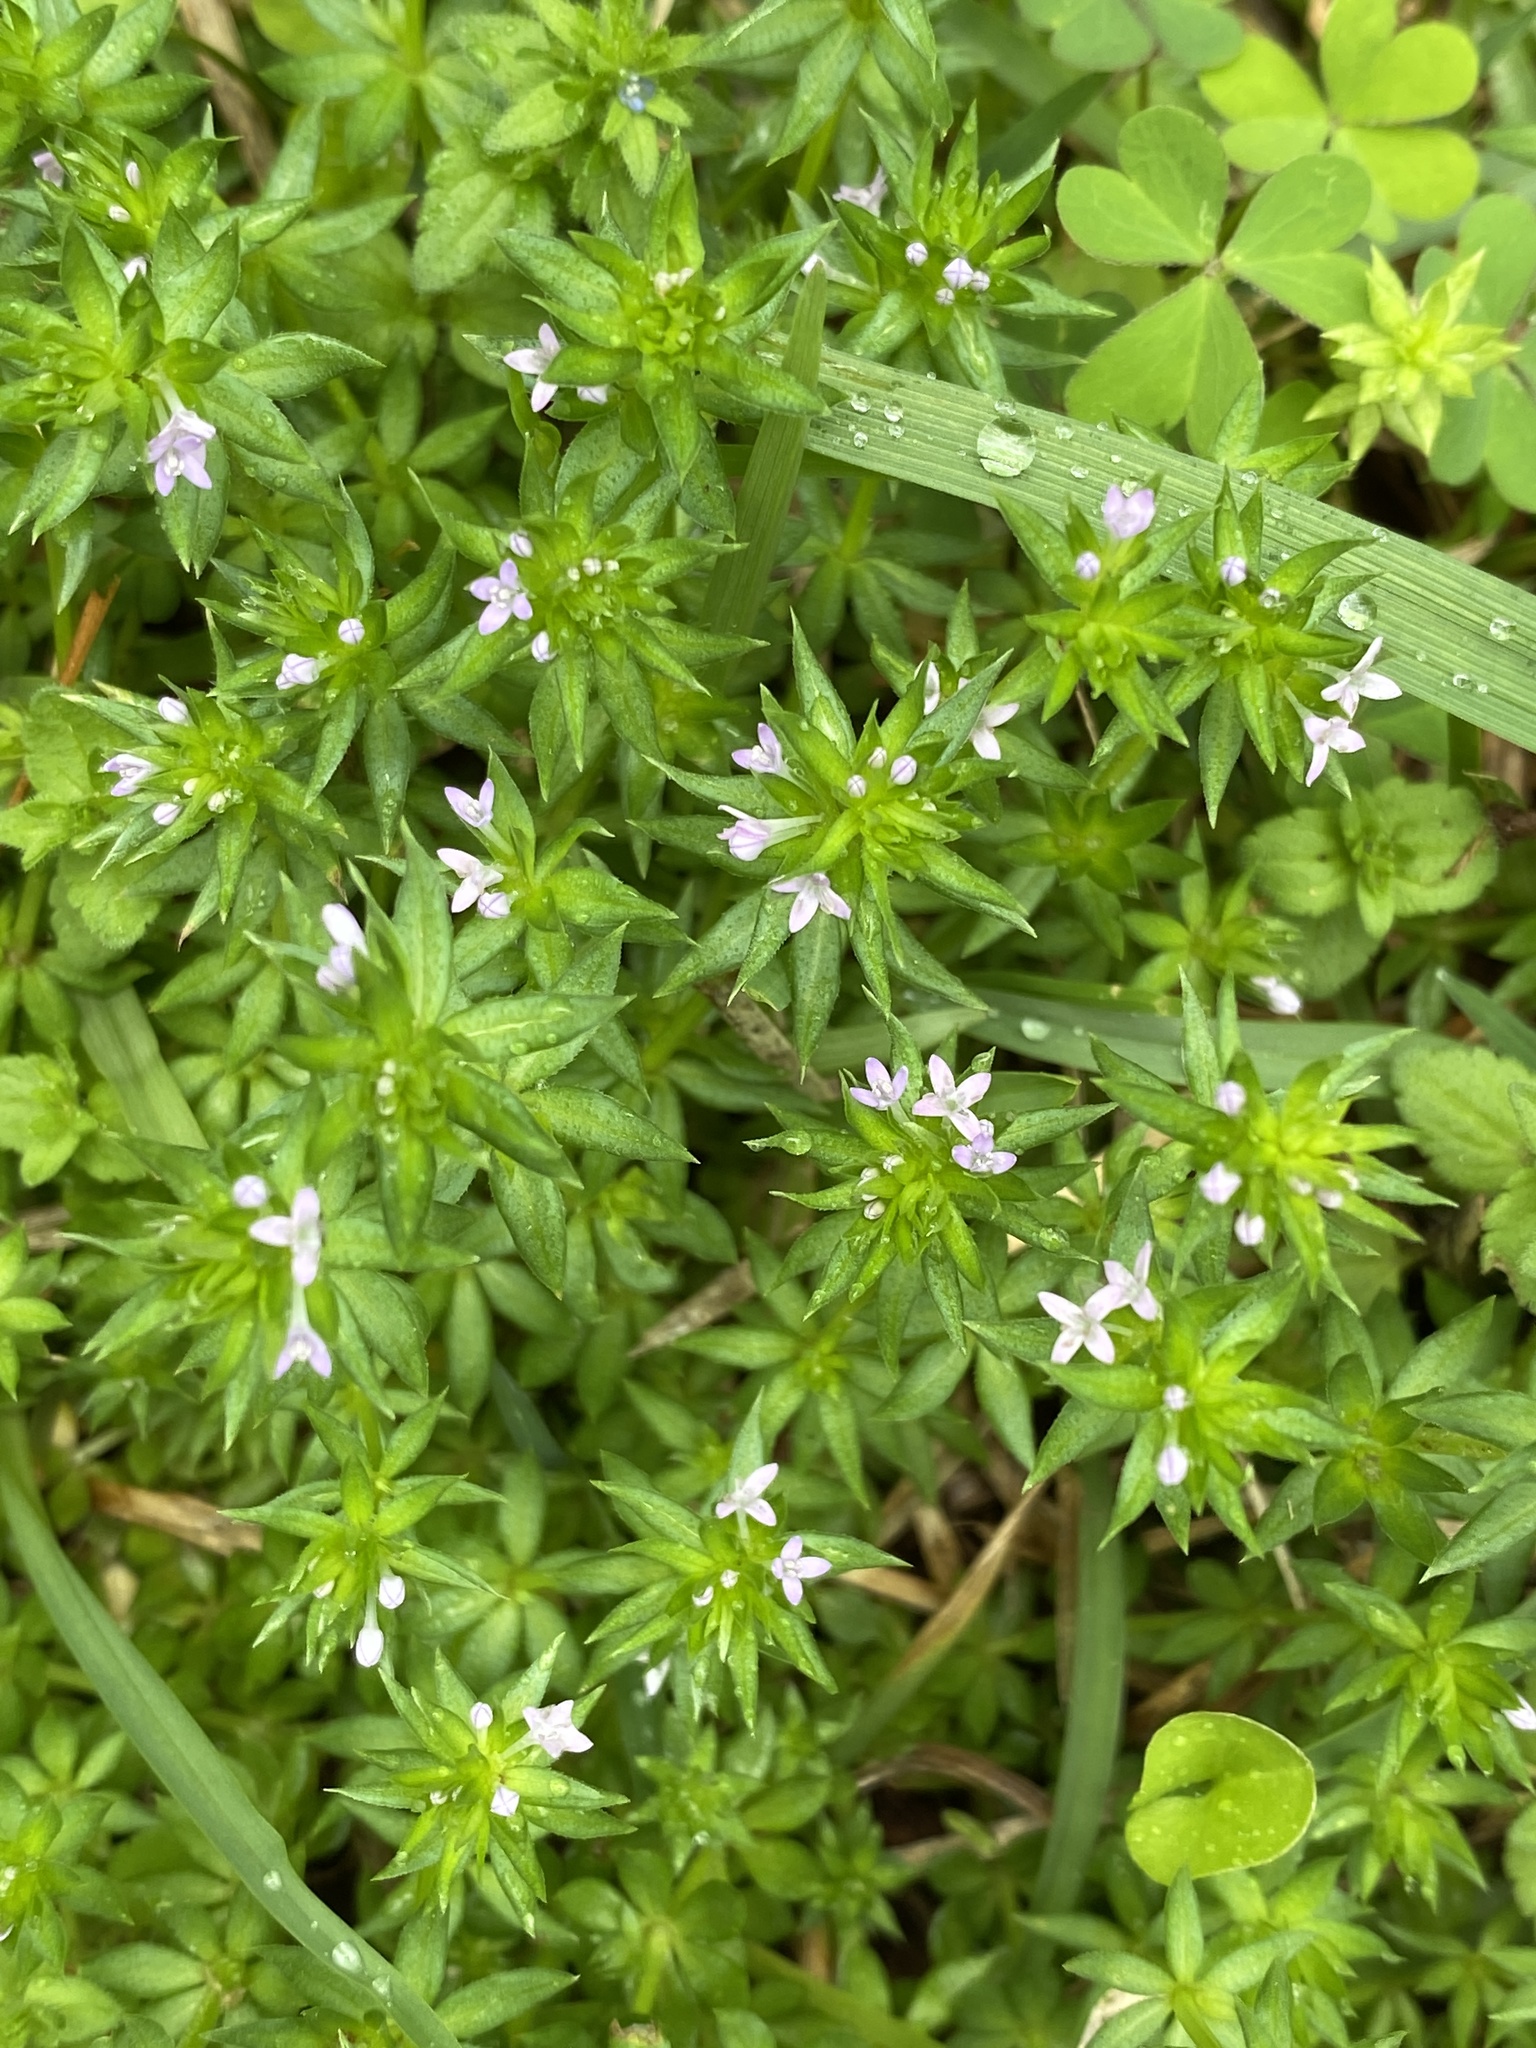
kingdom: Plantae
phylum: Tracheophyta
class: Magnoliopsida
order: Gentianales
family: Rubiaceae
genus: Sherardia
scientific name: Sherardia arvensis
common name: Field madder
